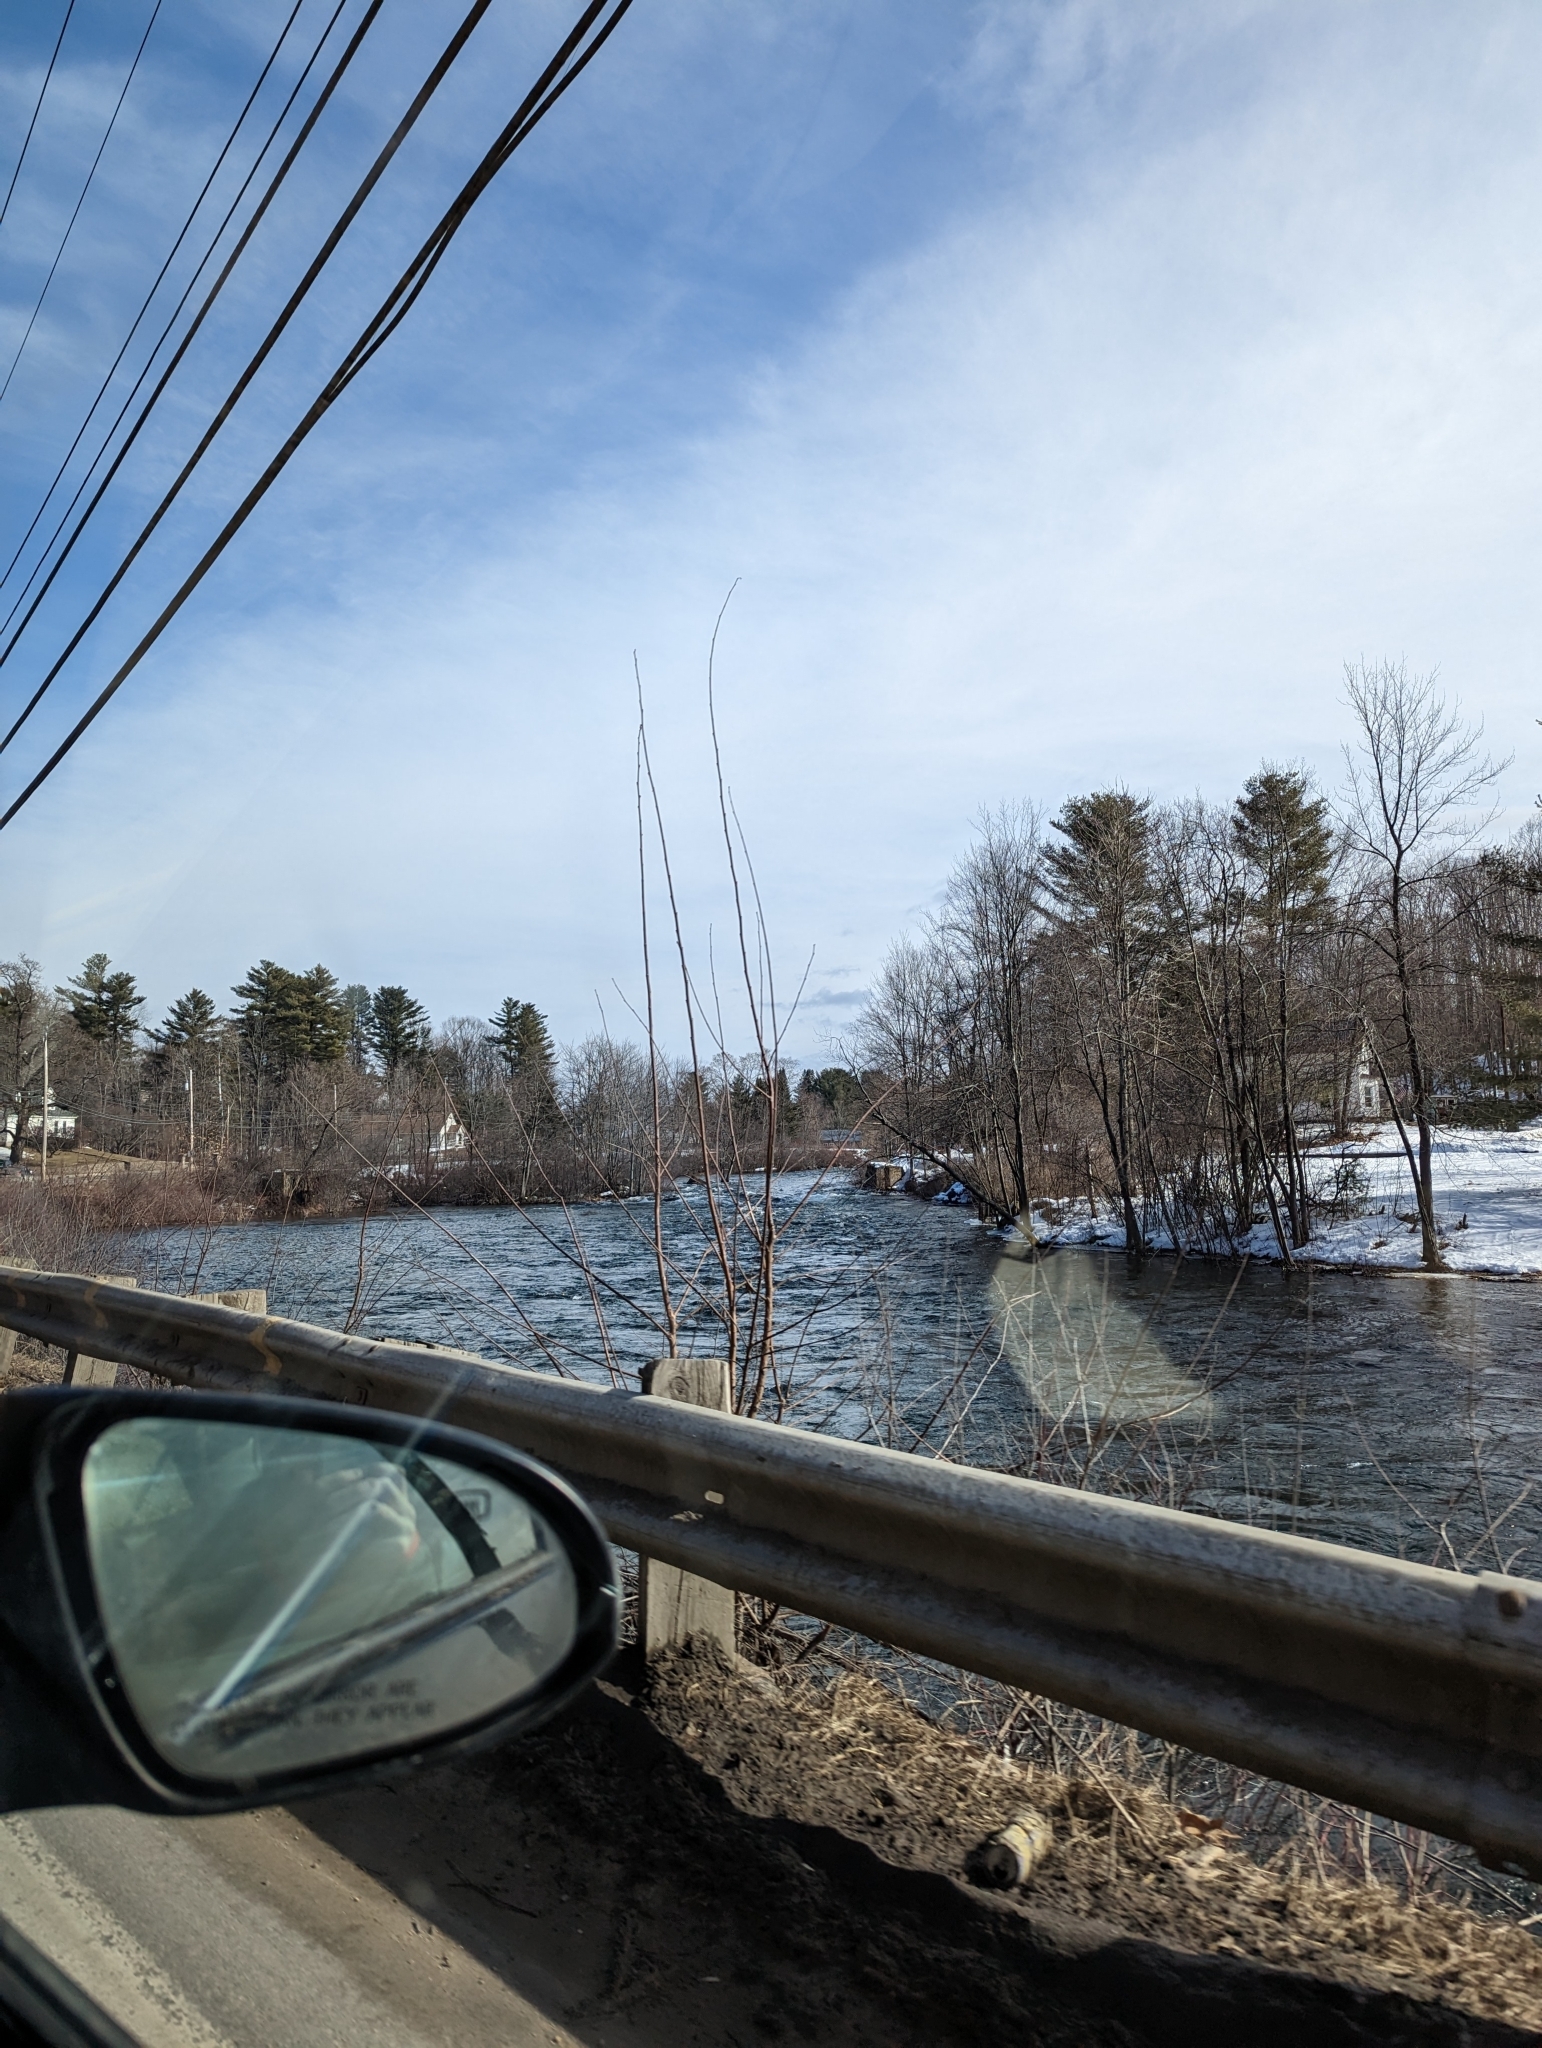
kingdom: Plantae
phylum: Tracheophyta
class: Pinopsida
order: Pinales
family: Pinaceae
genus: Pinus
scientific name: Pinus strobus
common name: Weymouth pine
